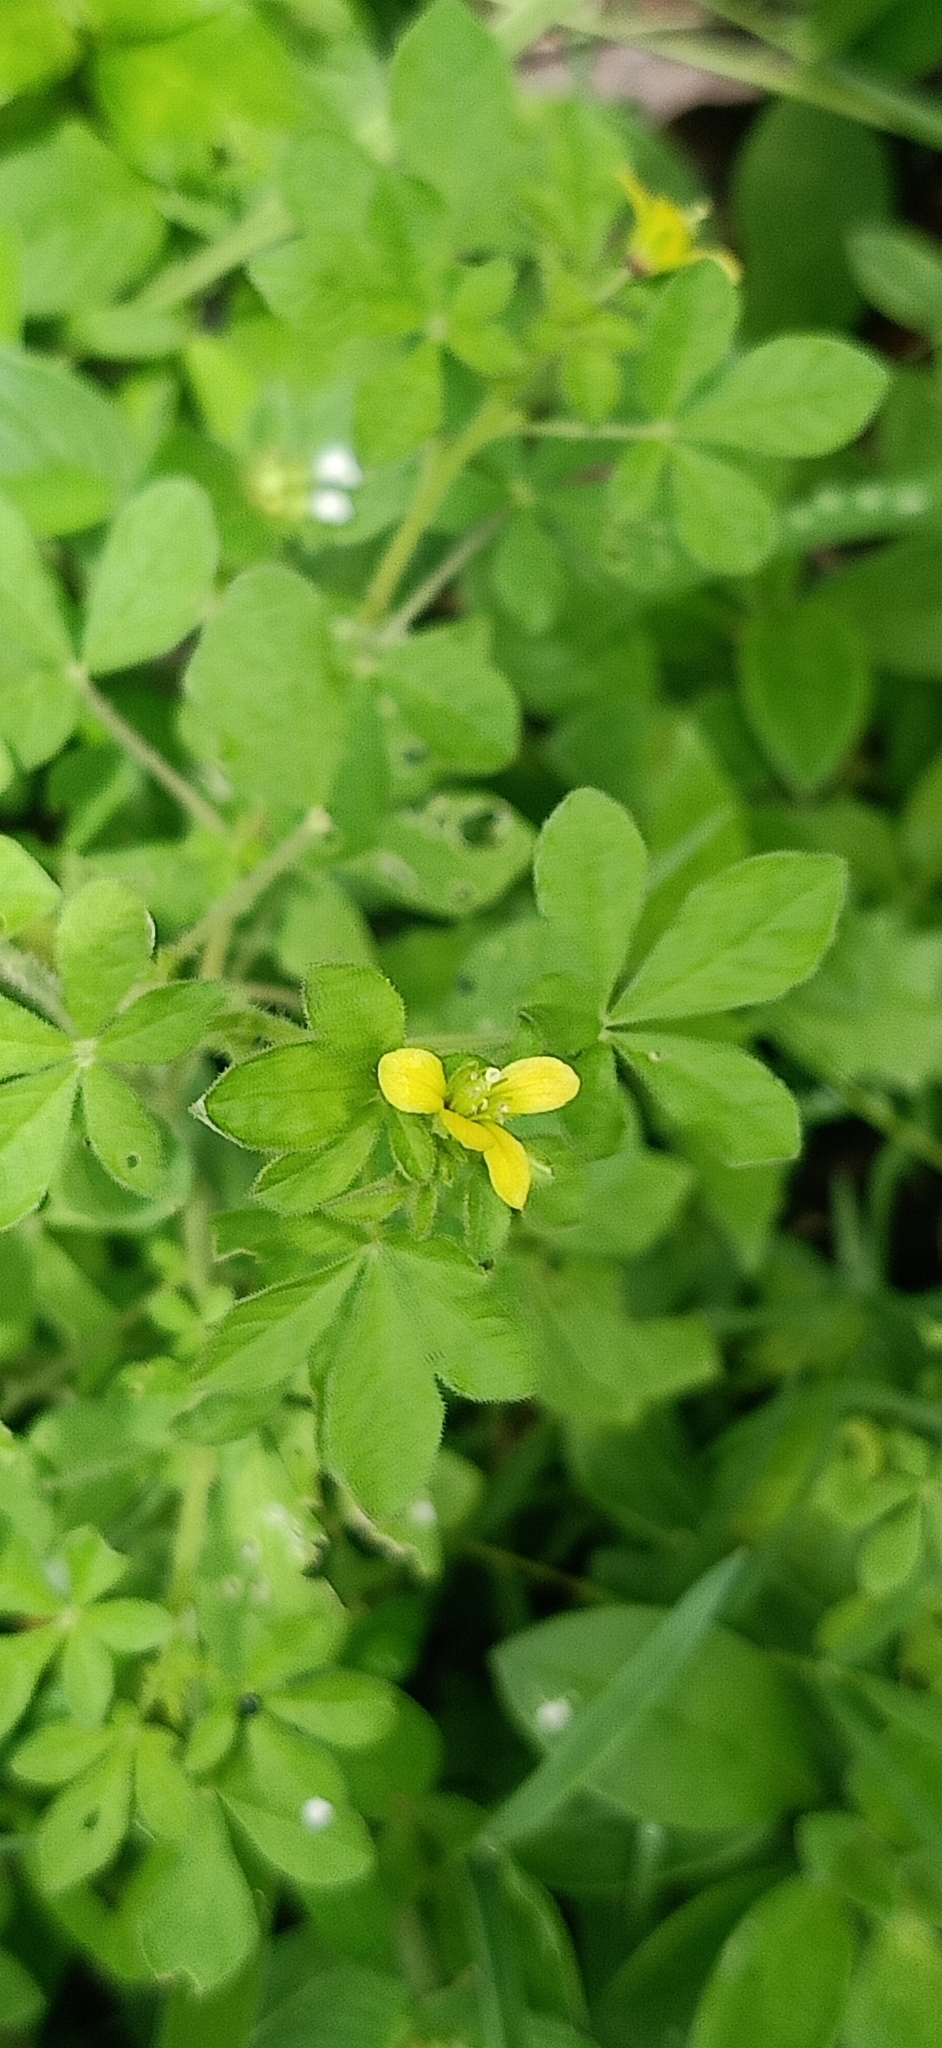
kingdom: Plantae
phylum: Tracheophyta
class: Magnoliopsida
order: Brassicales
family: Cleomaceae
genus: Arivela
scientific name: Arivela viscosa
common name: Asian spiderflower
